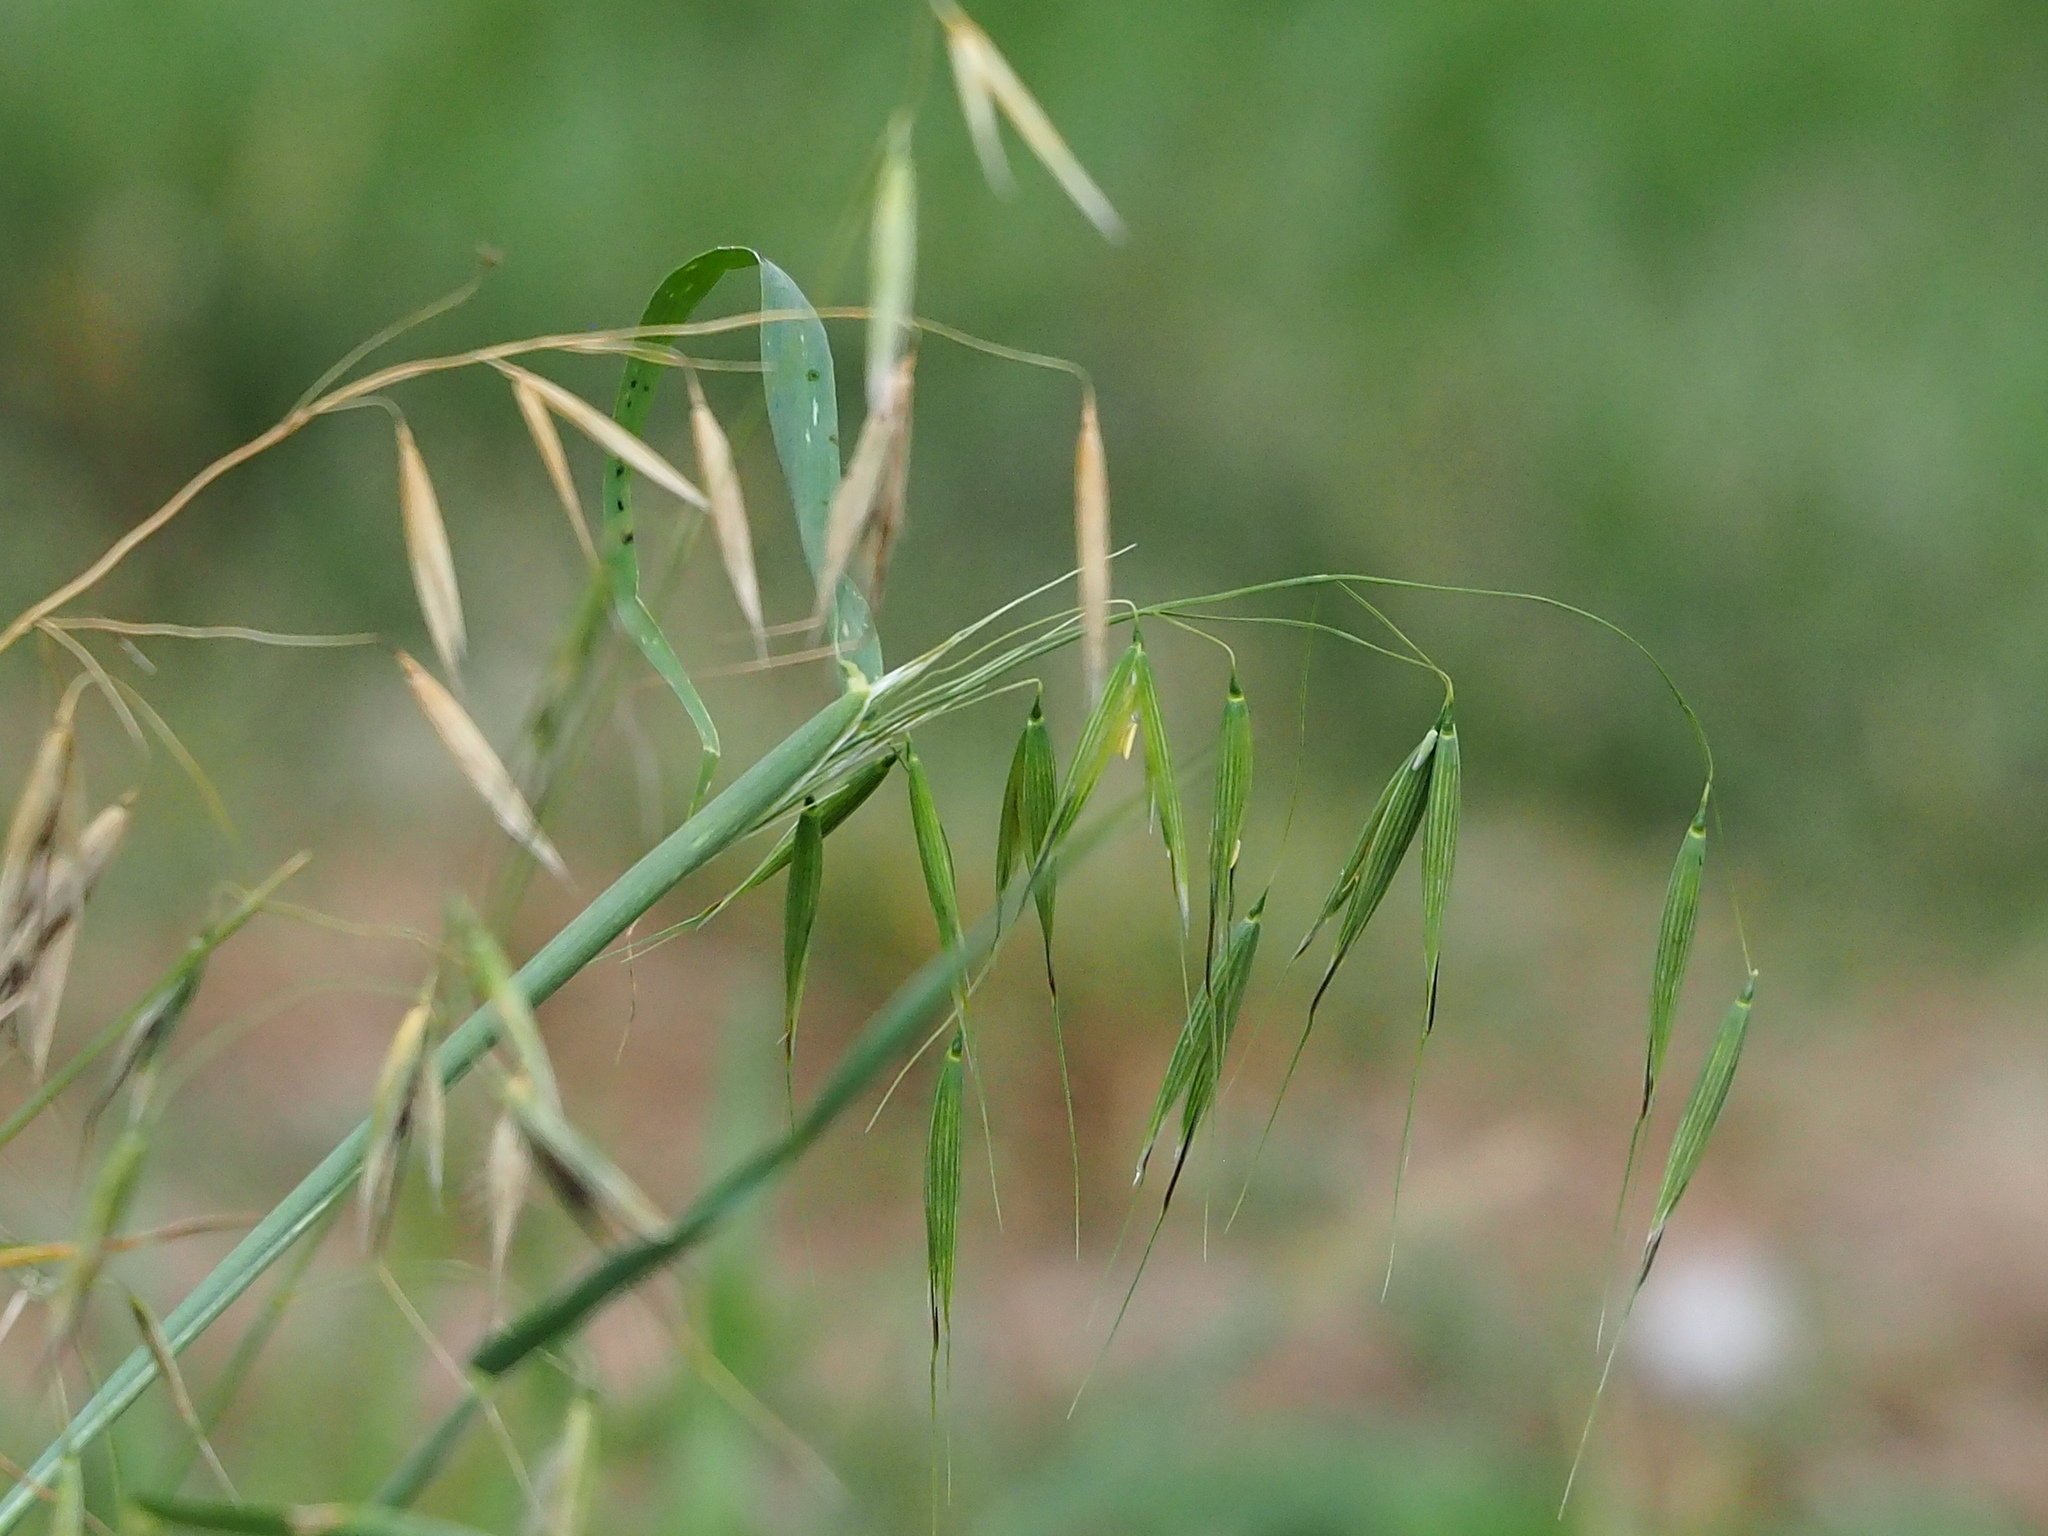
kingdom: Plantae
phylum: Tracheophyta
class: Liliopsida
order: Poales
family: Poaceae
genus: Avena
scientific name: Avena fatua
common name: Wild oat
